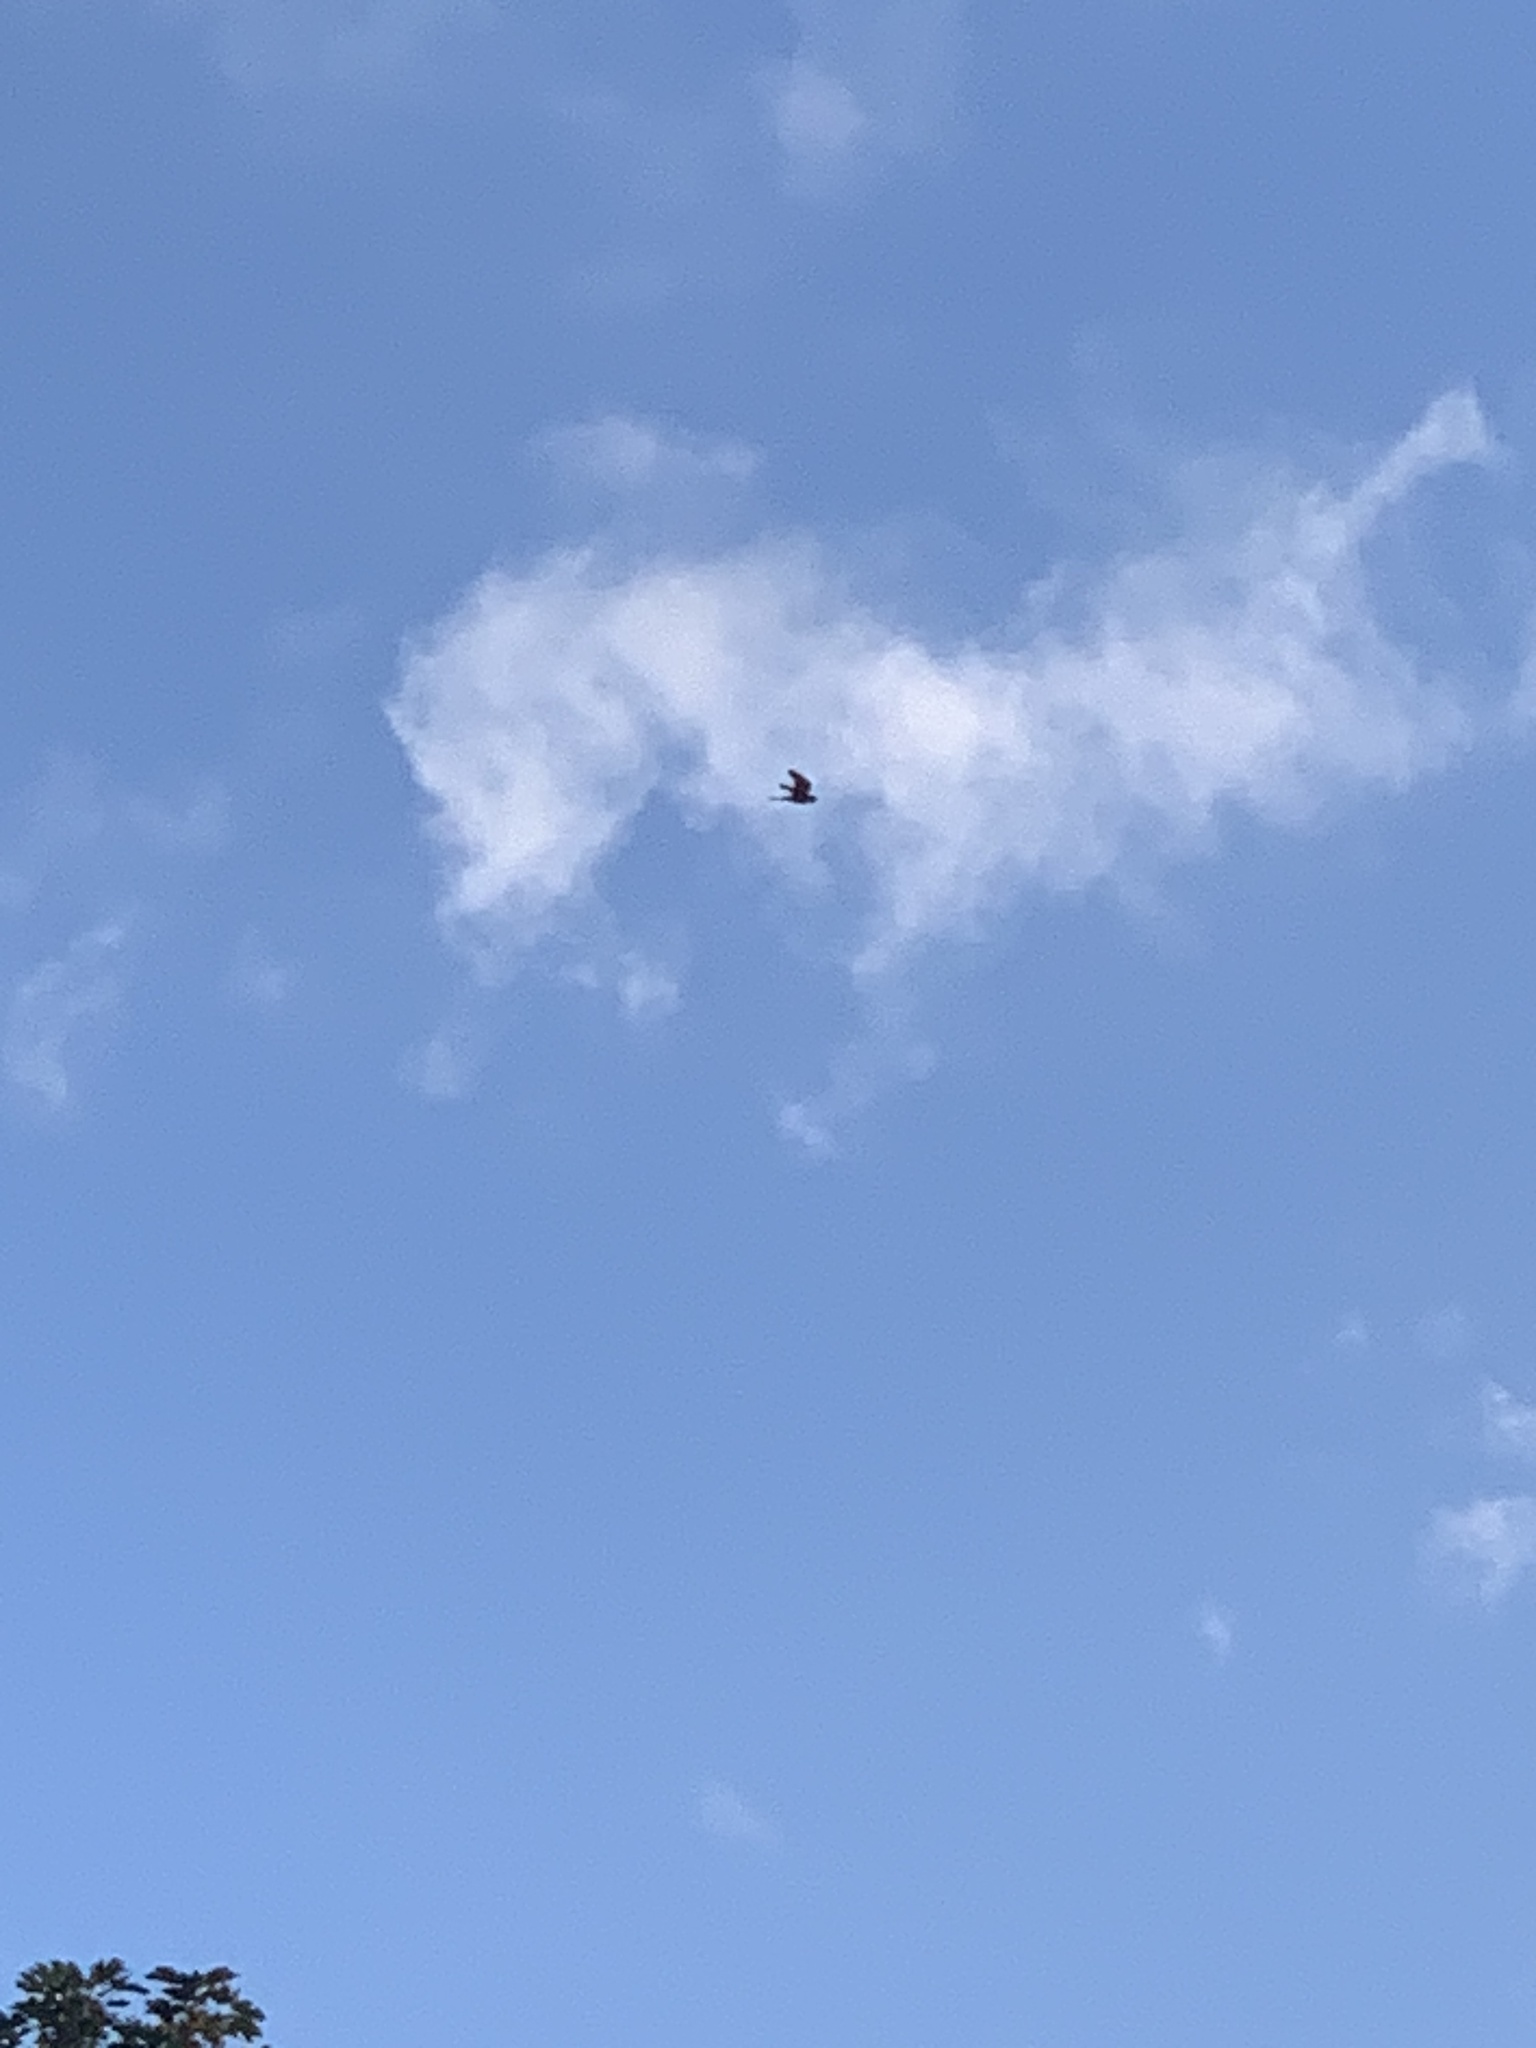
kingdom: Animalia
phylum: Chordata
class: Aves
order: Falconiformes
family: Falconidae
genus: Falco
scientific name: Falco tinnunculus
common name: Common kestrel
